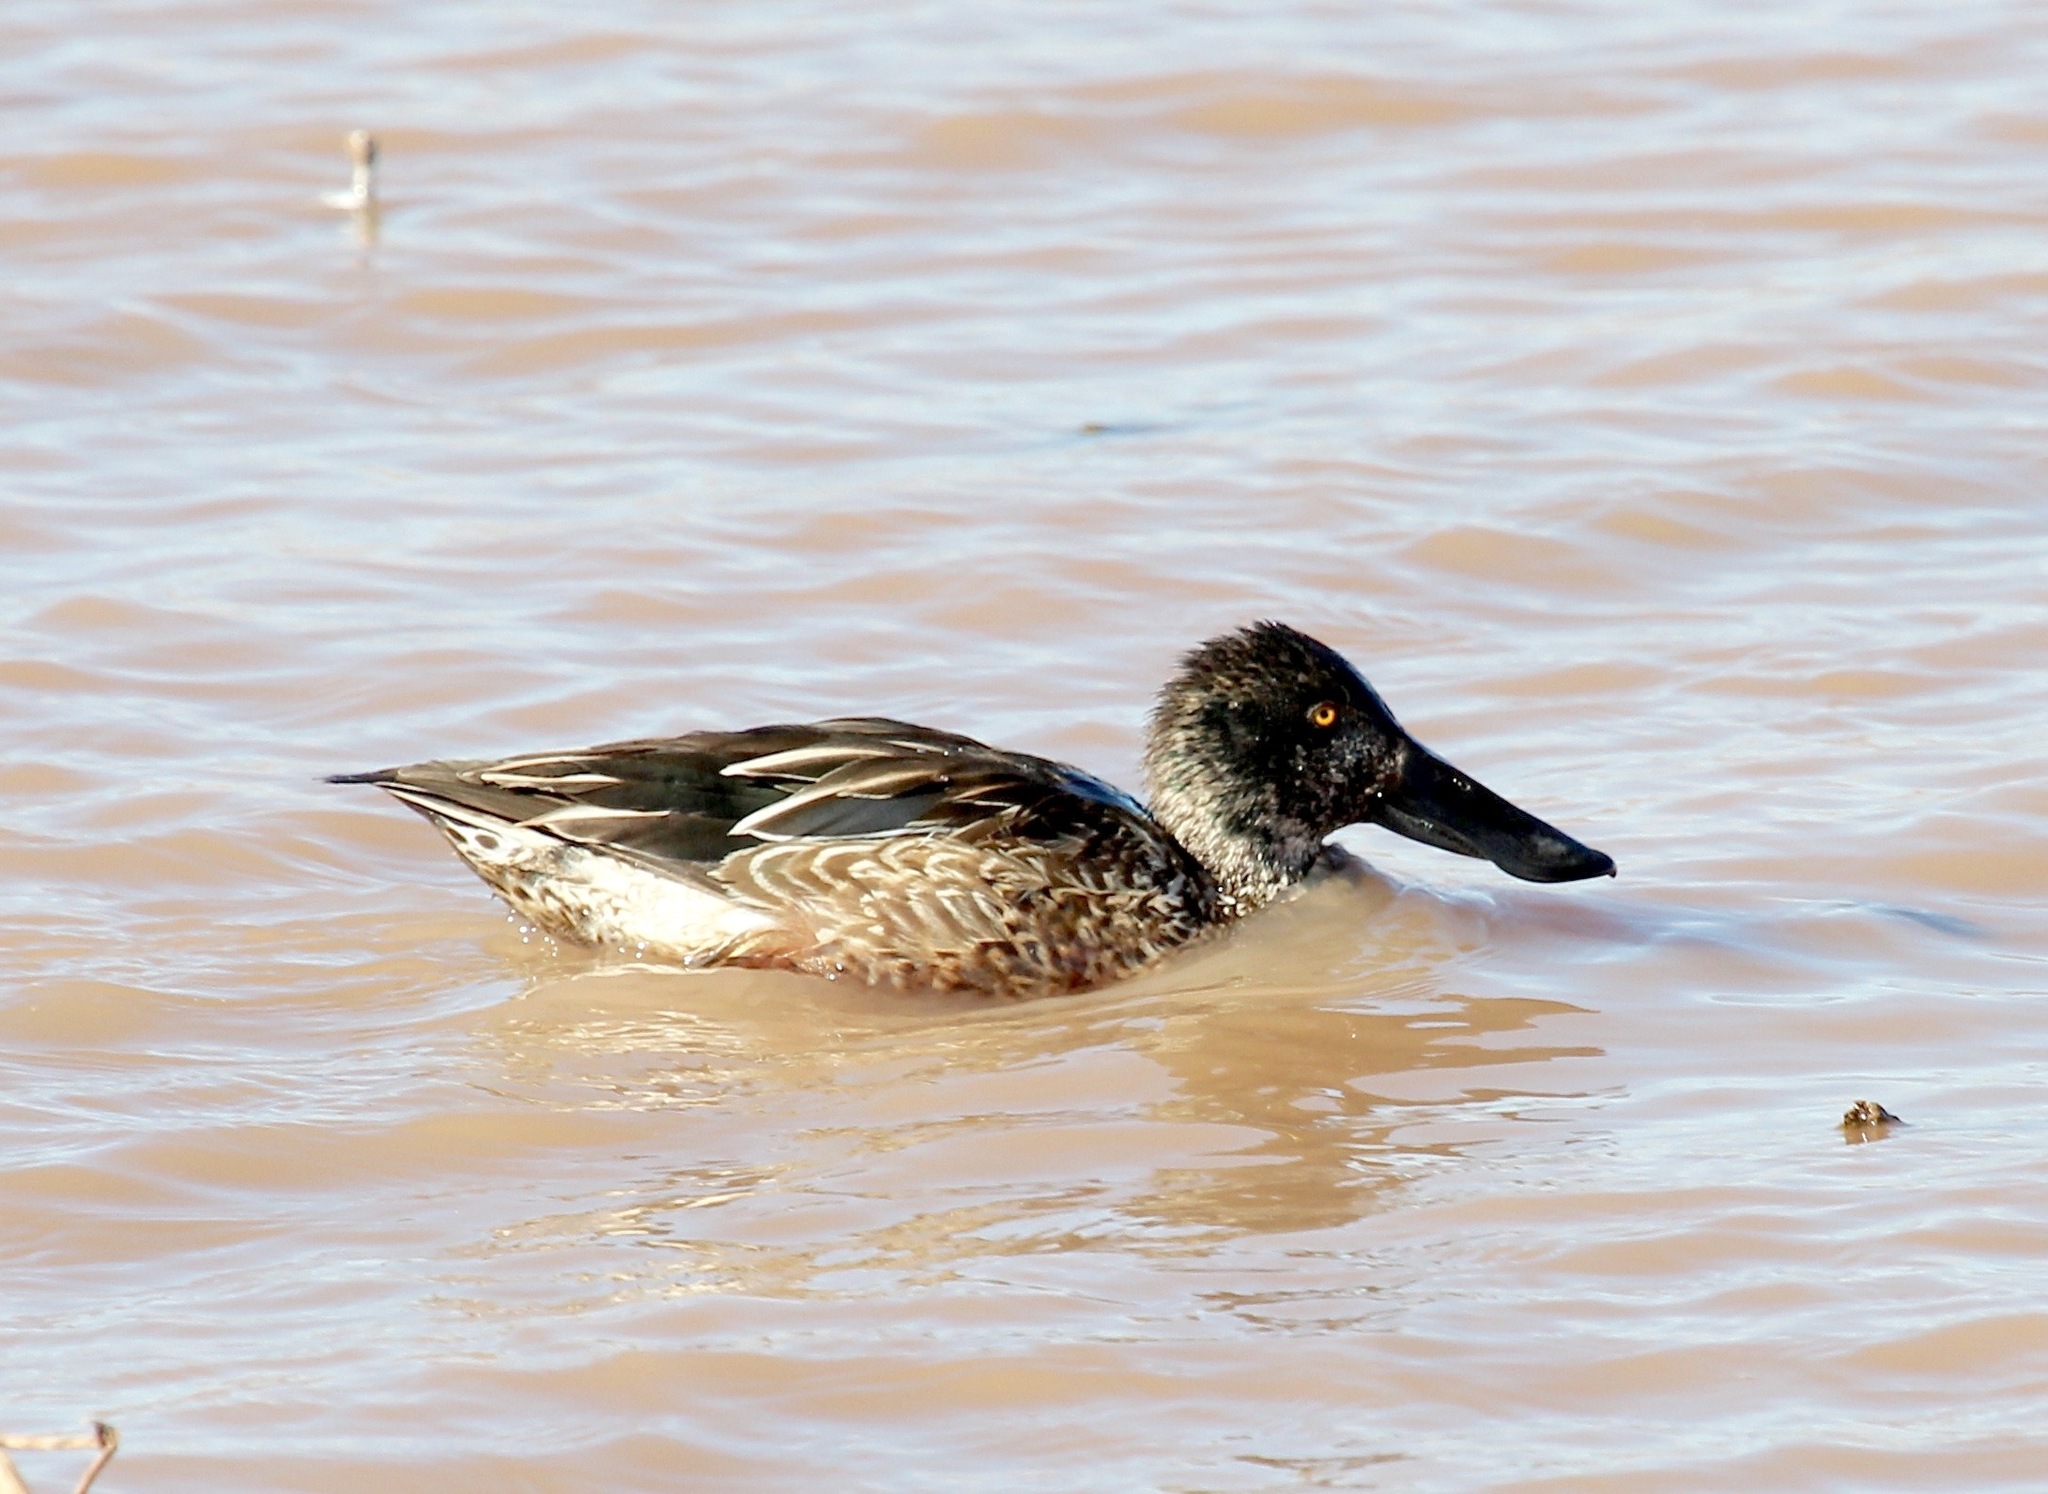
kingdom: Animalia
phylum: Chordata
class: Aves
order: Anseriformes
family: Anatidae
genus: Spatula
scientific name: Spatula clypeata
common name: Northern shoveler
